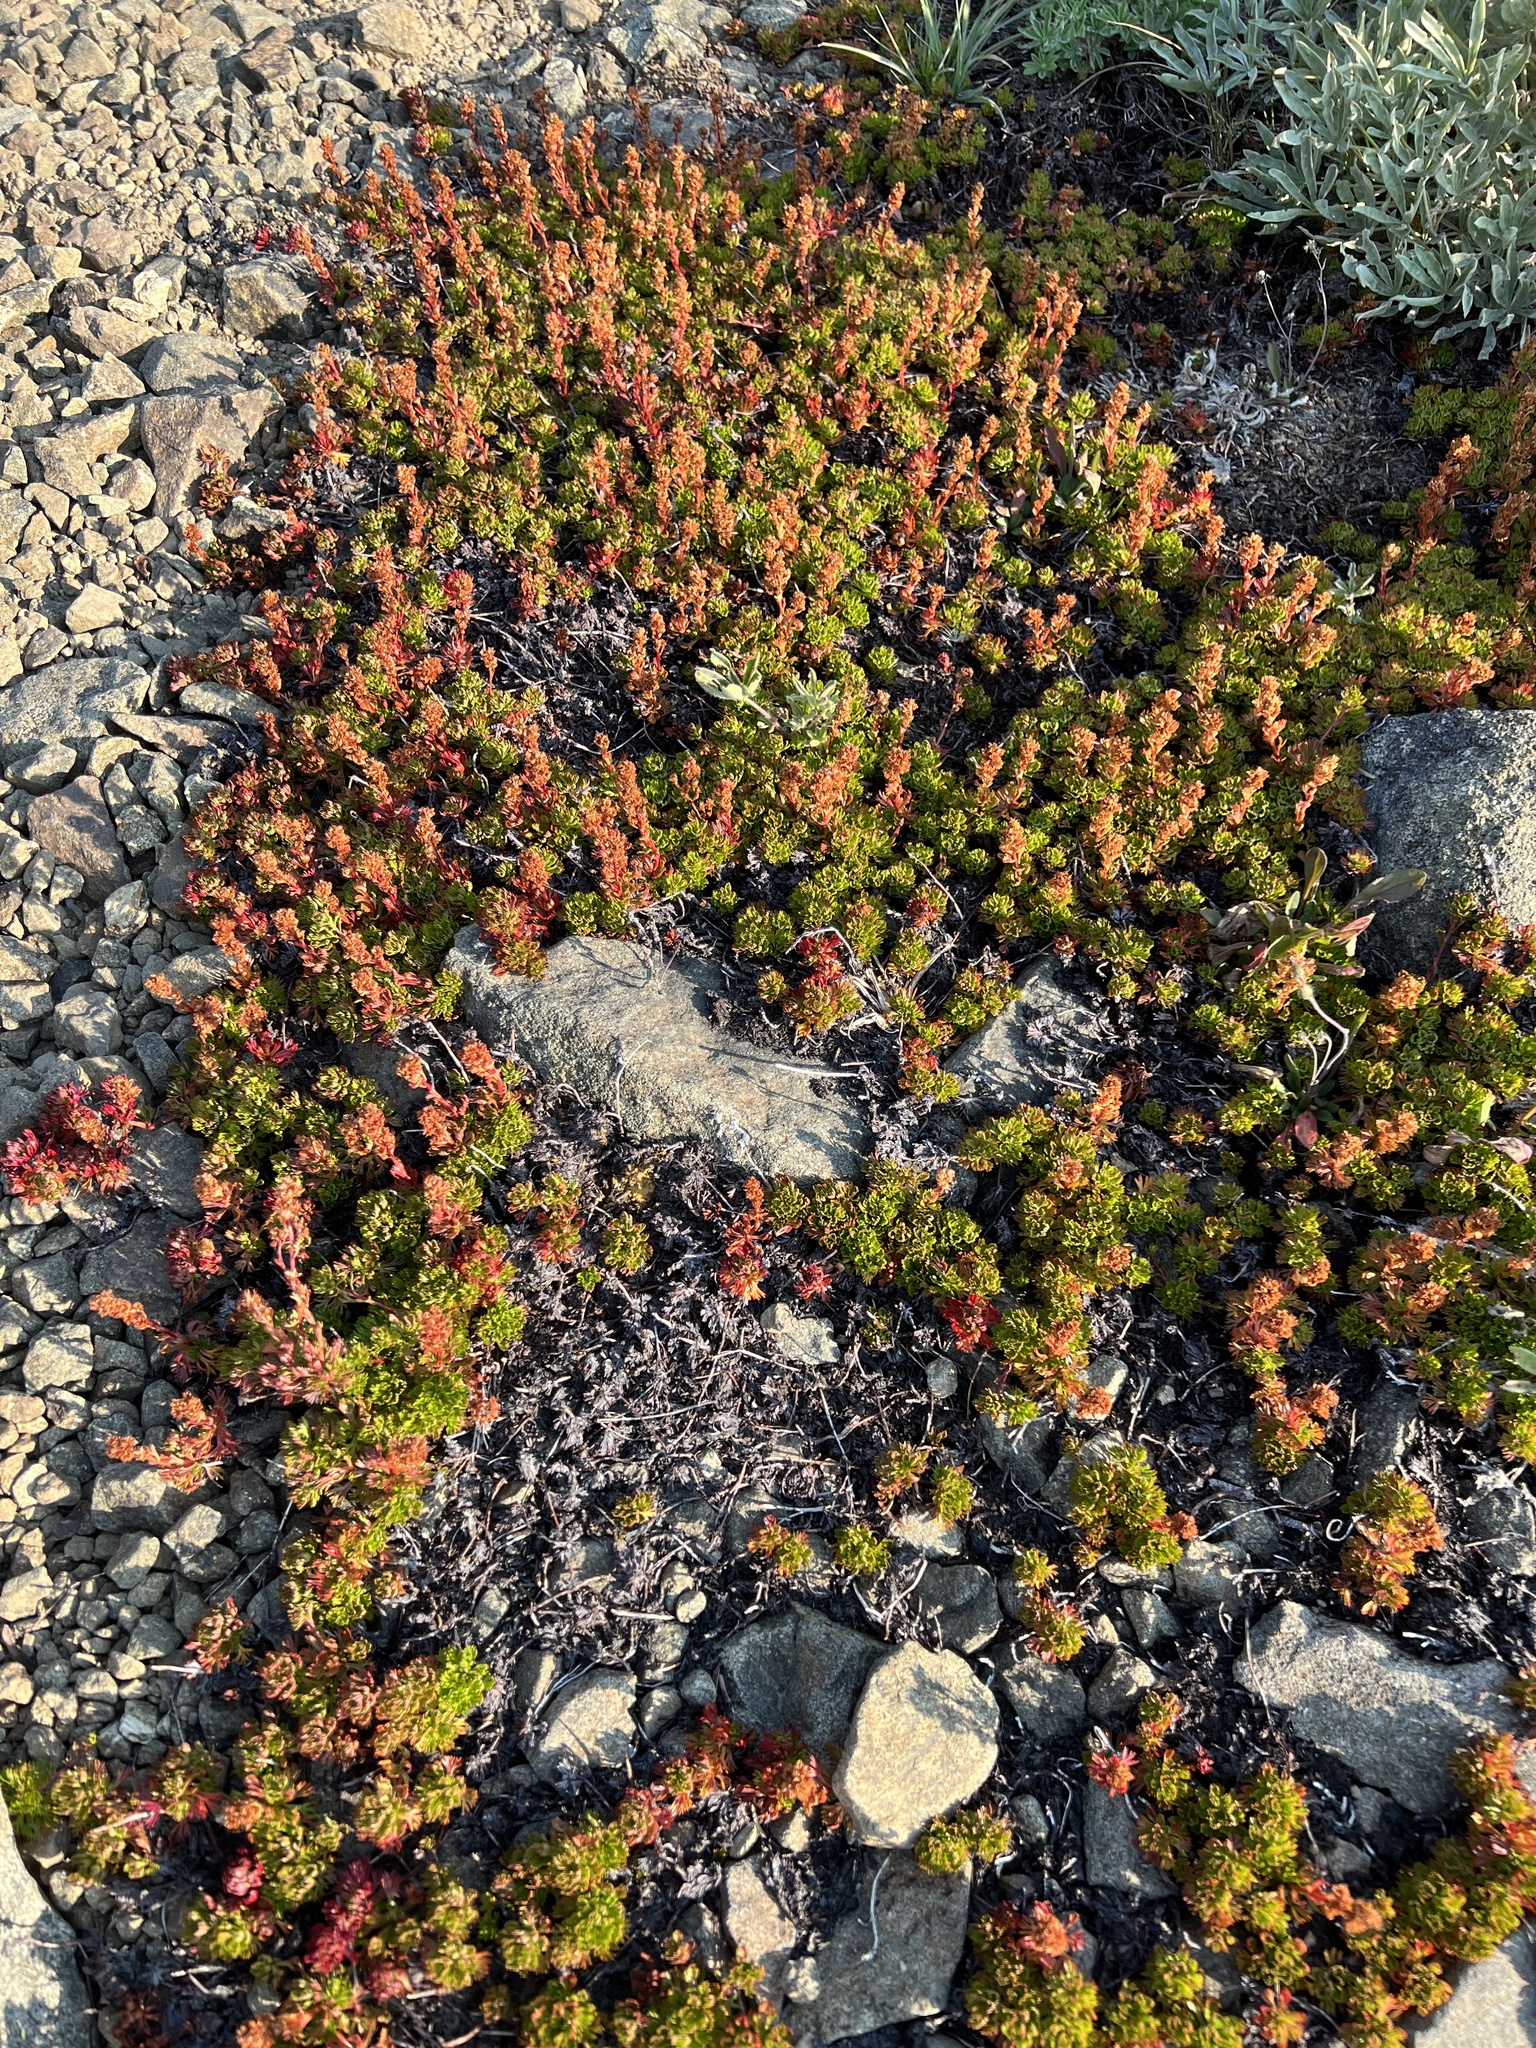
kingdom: Plantae
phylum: Tracheophyta
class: Magnoliopsida
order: Rosales
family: Rosaceae
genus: Luetkea
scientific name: Luetkea pectinata
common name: Partridgefoot
